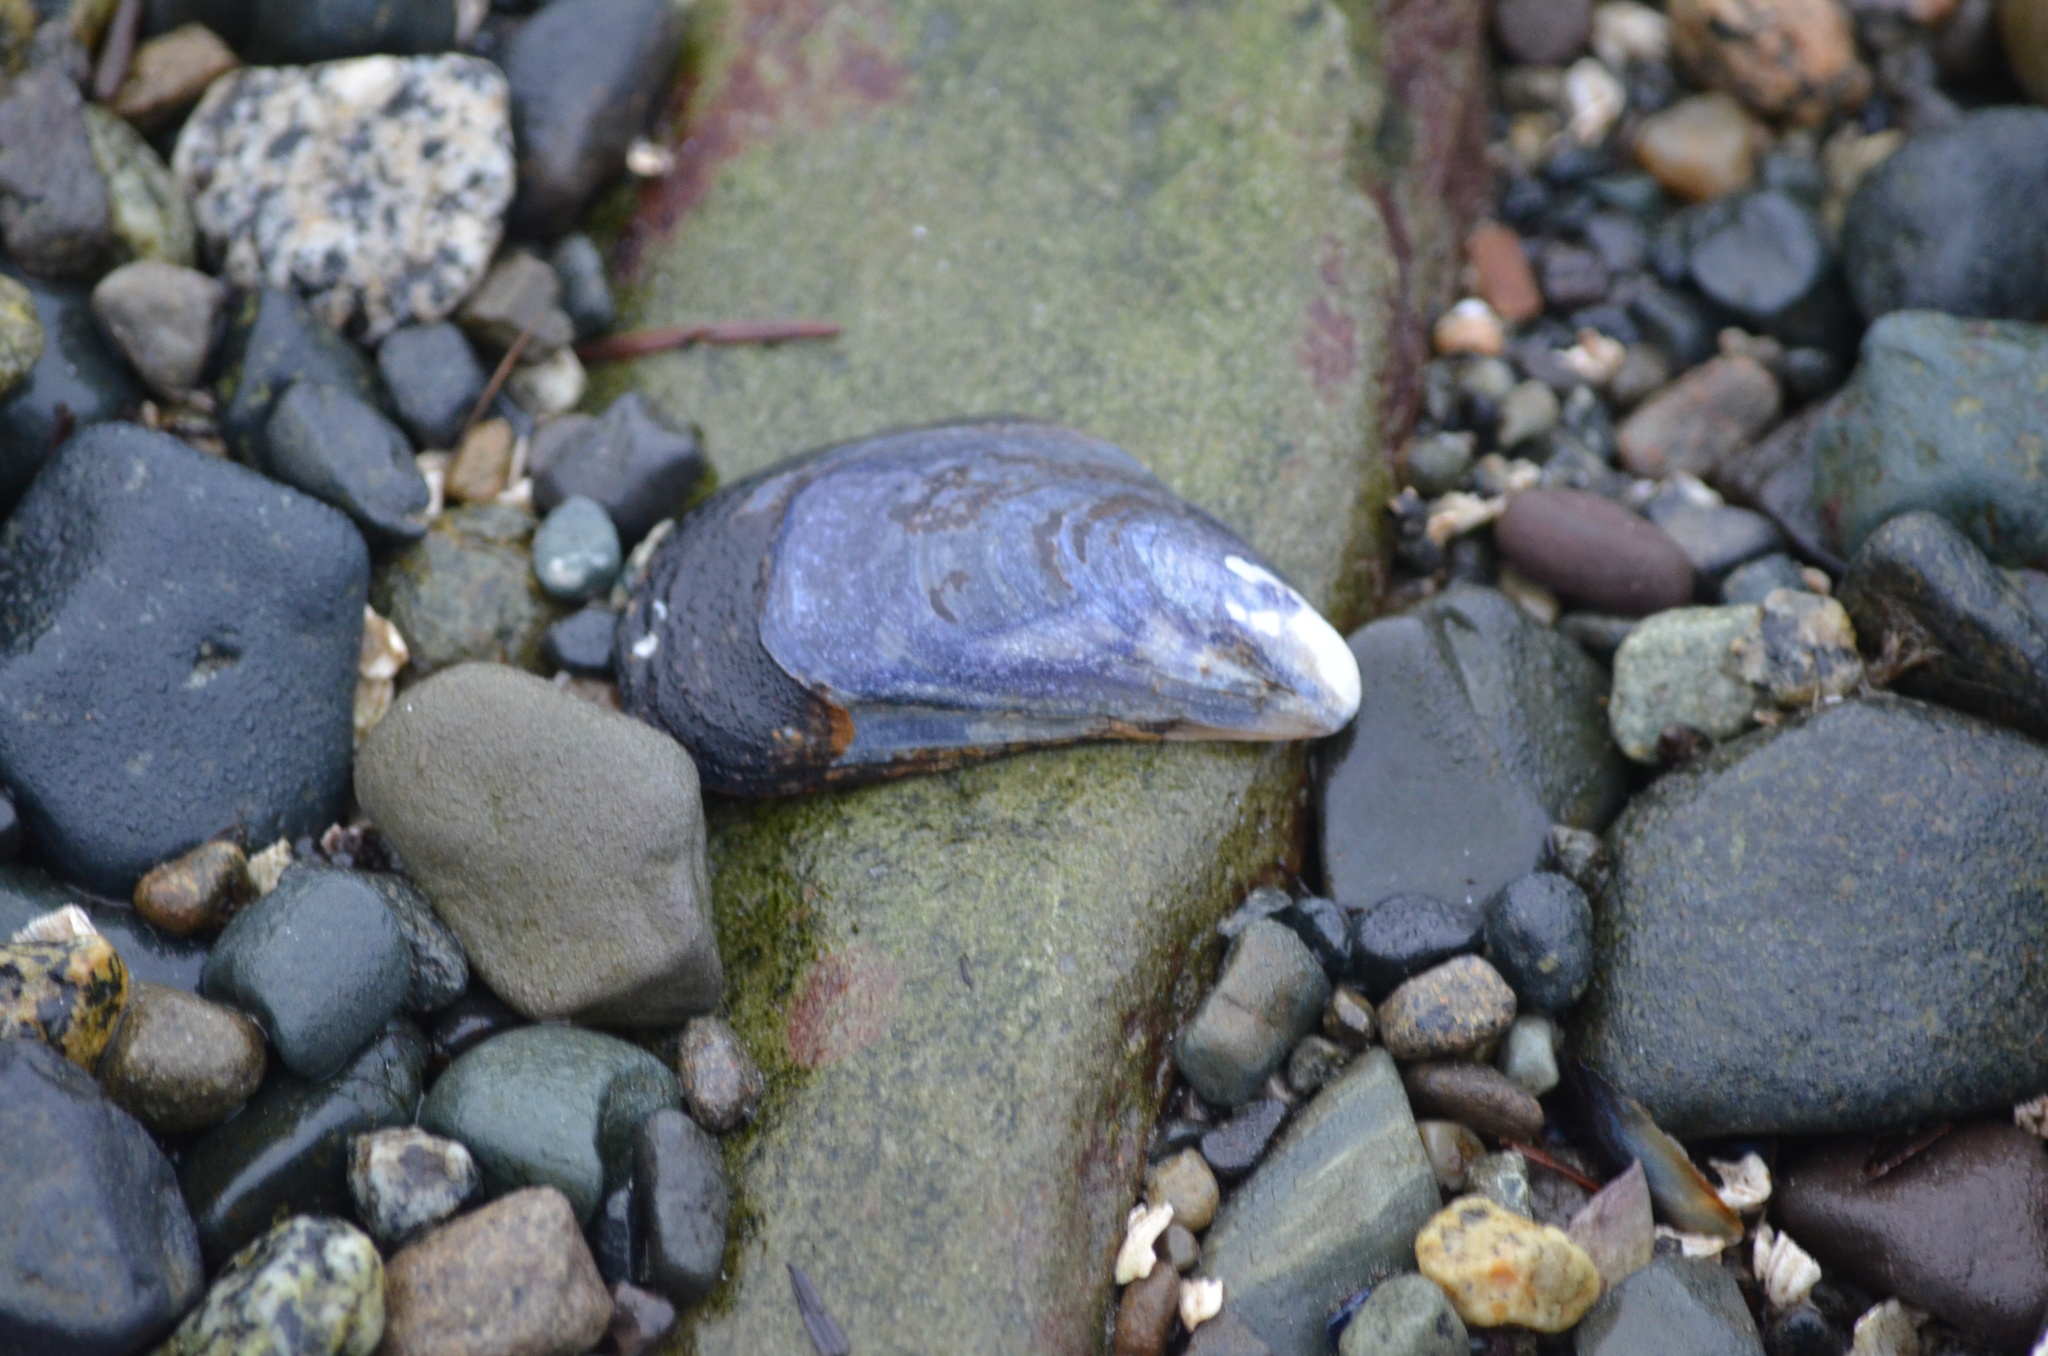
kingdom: Animalia
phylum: Mollusca
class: Bivalvia
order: Mytilida
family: Mytilidae
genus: Mytilus
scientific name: Mytilus
